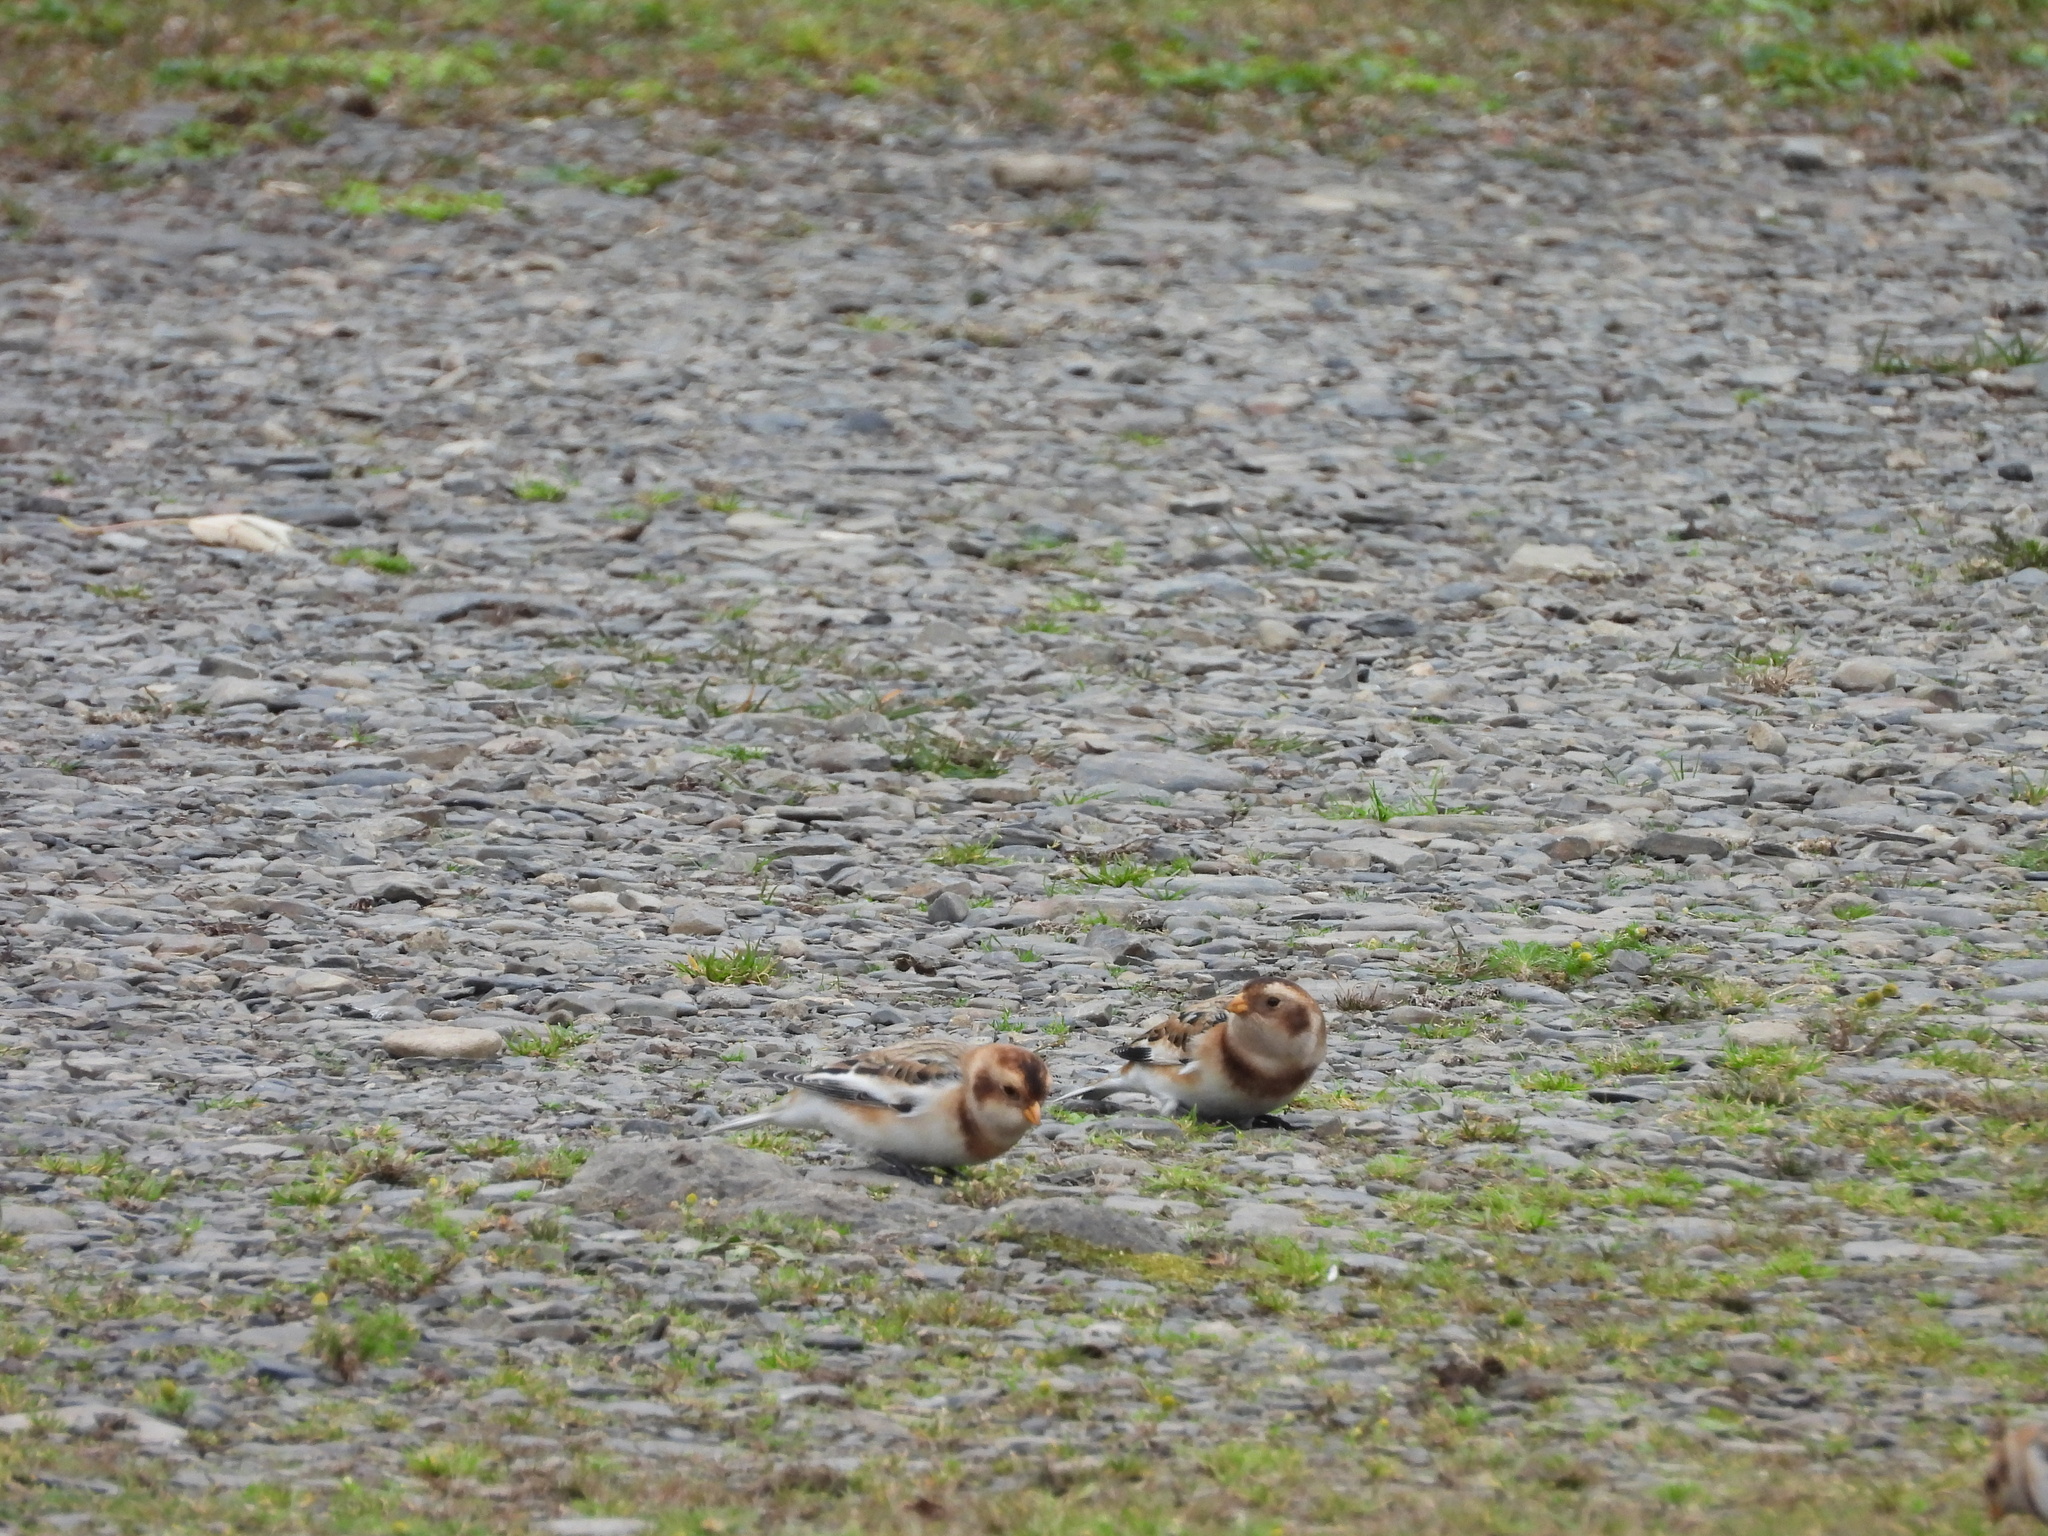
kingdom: Animalia
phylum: Chordata
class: Aves
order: Passeriformes
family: Calcariidae
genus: Plectrophenax
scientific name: Plectrophenax nivalis
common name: Snow bunting
